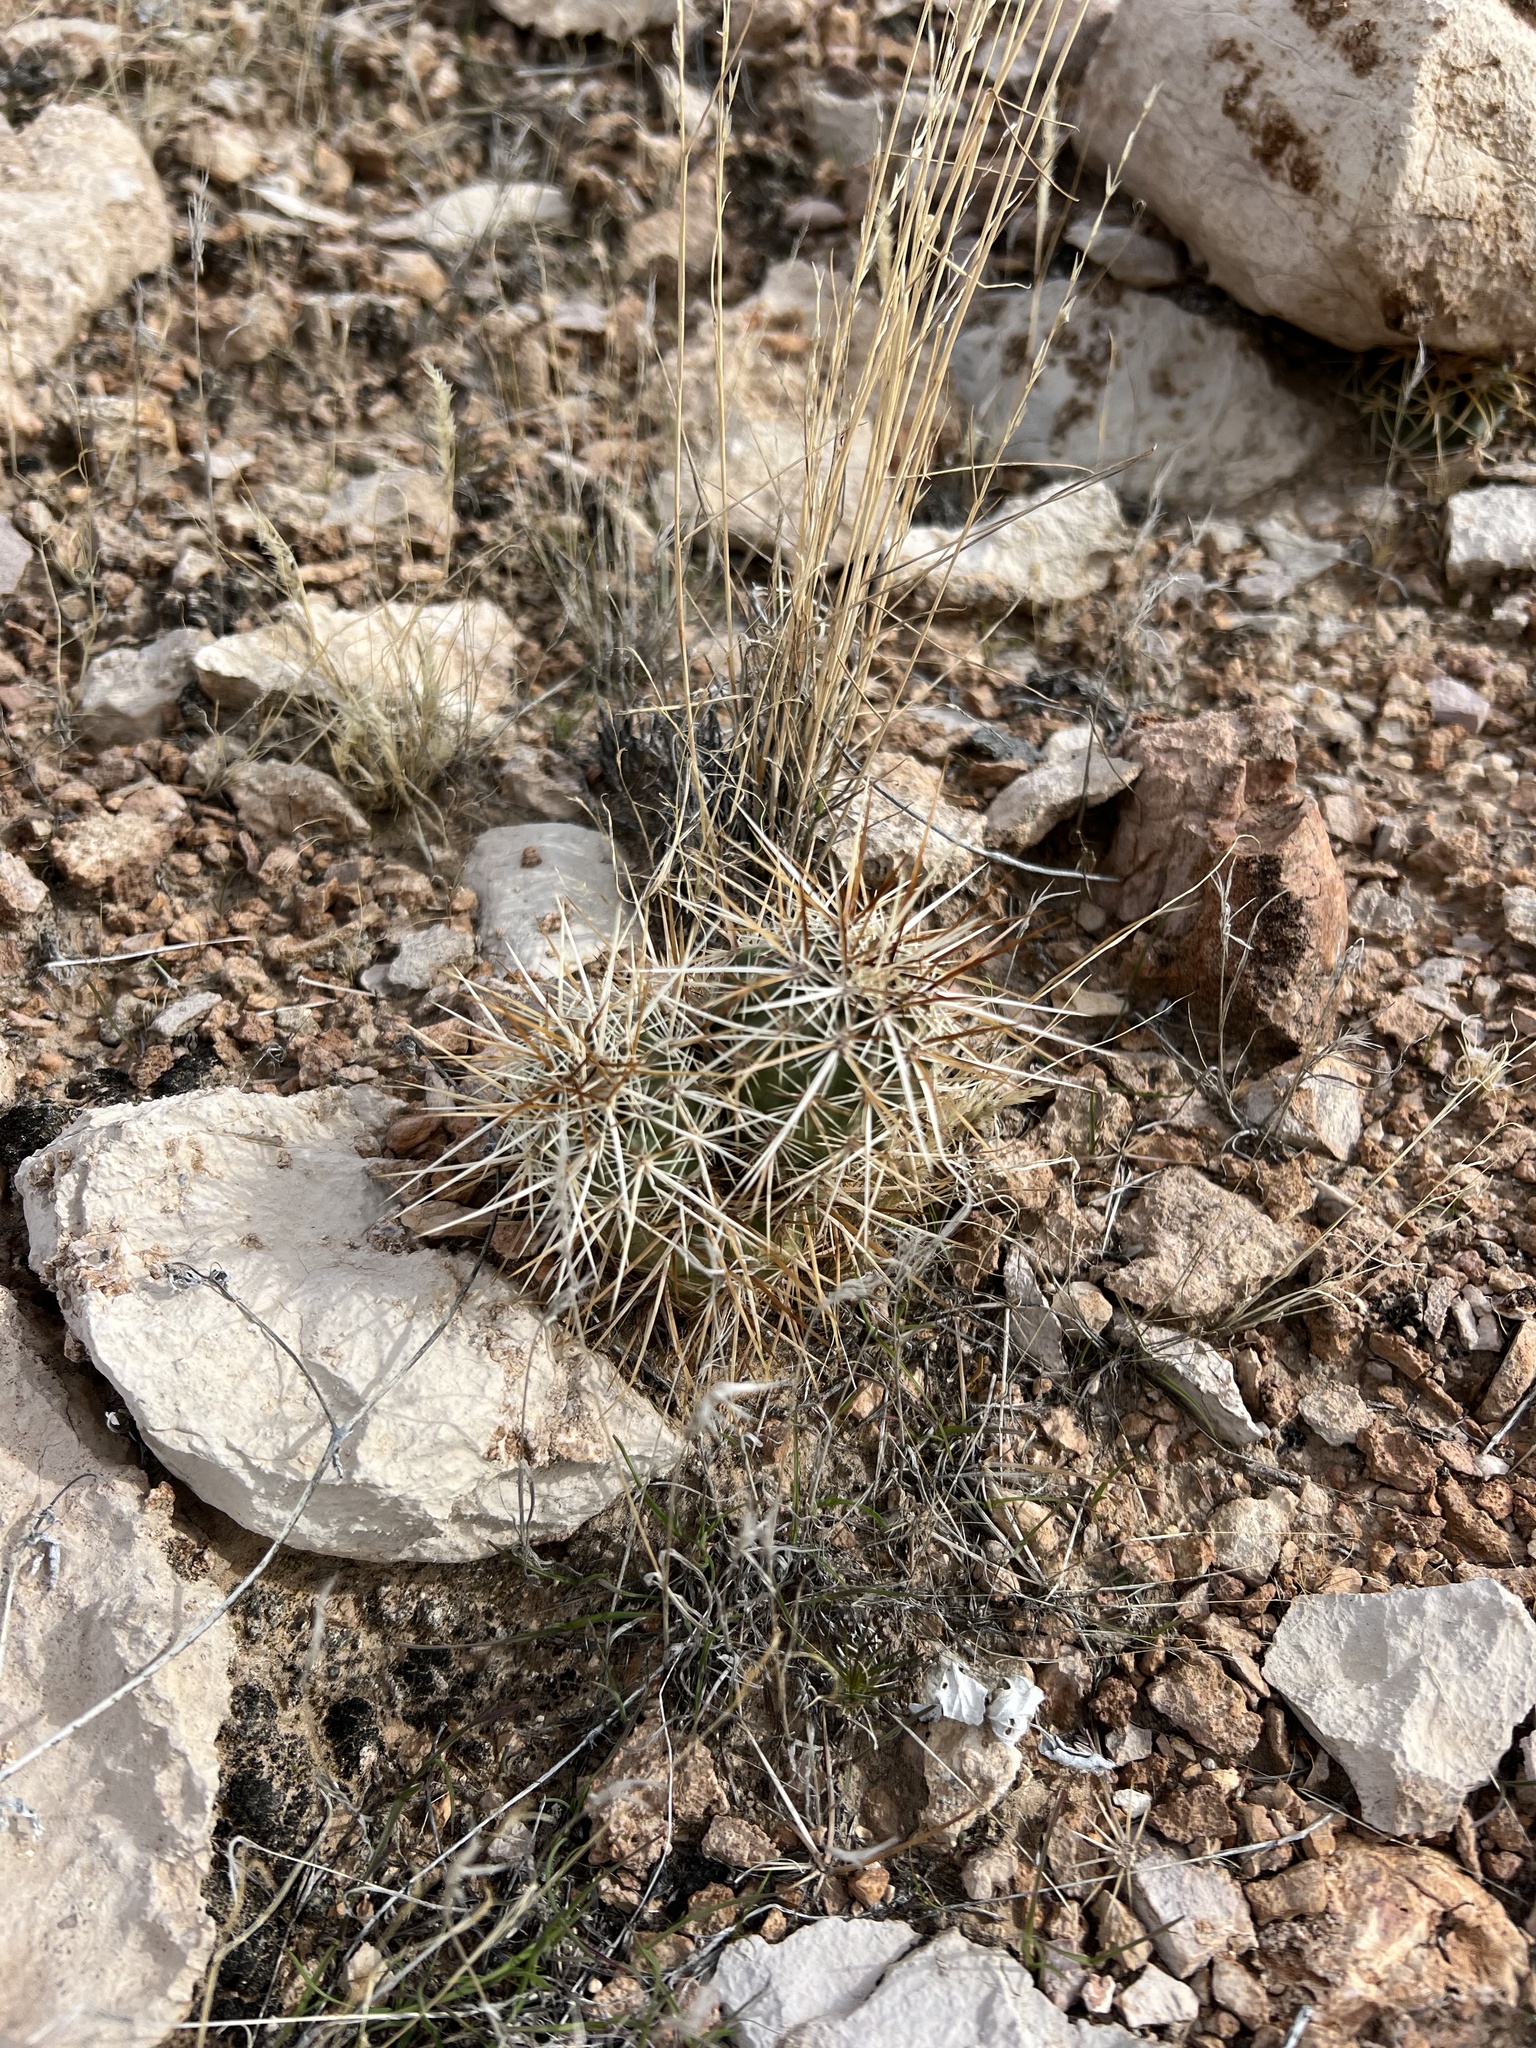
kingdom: Plantae
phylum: Tracheophyta
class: Magnoliopsida
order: Caryophyllales
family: Cactaceae
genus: Echinocereus
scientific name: Echinocereus engelmannii
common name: Engelmann's hedgehog cactus
